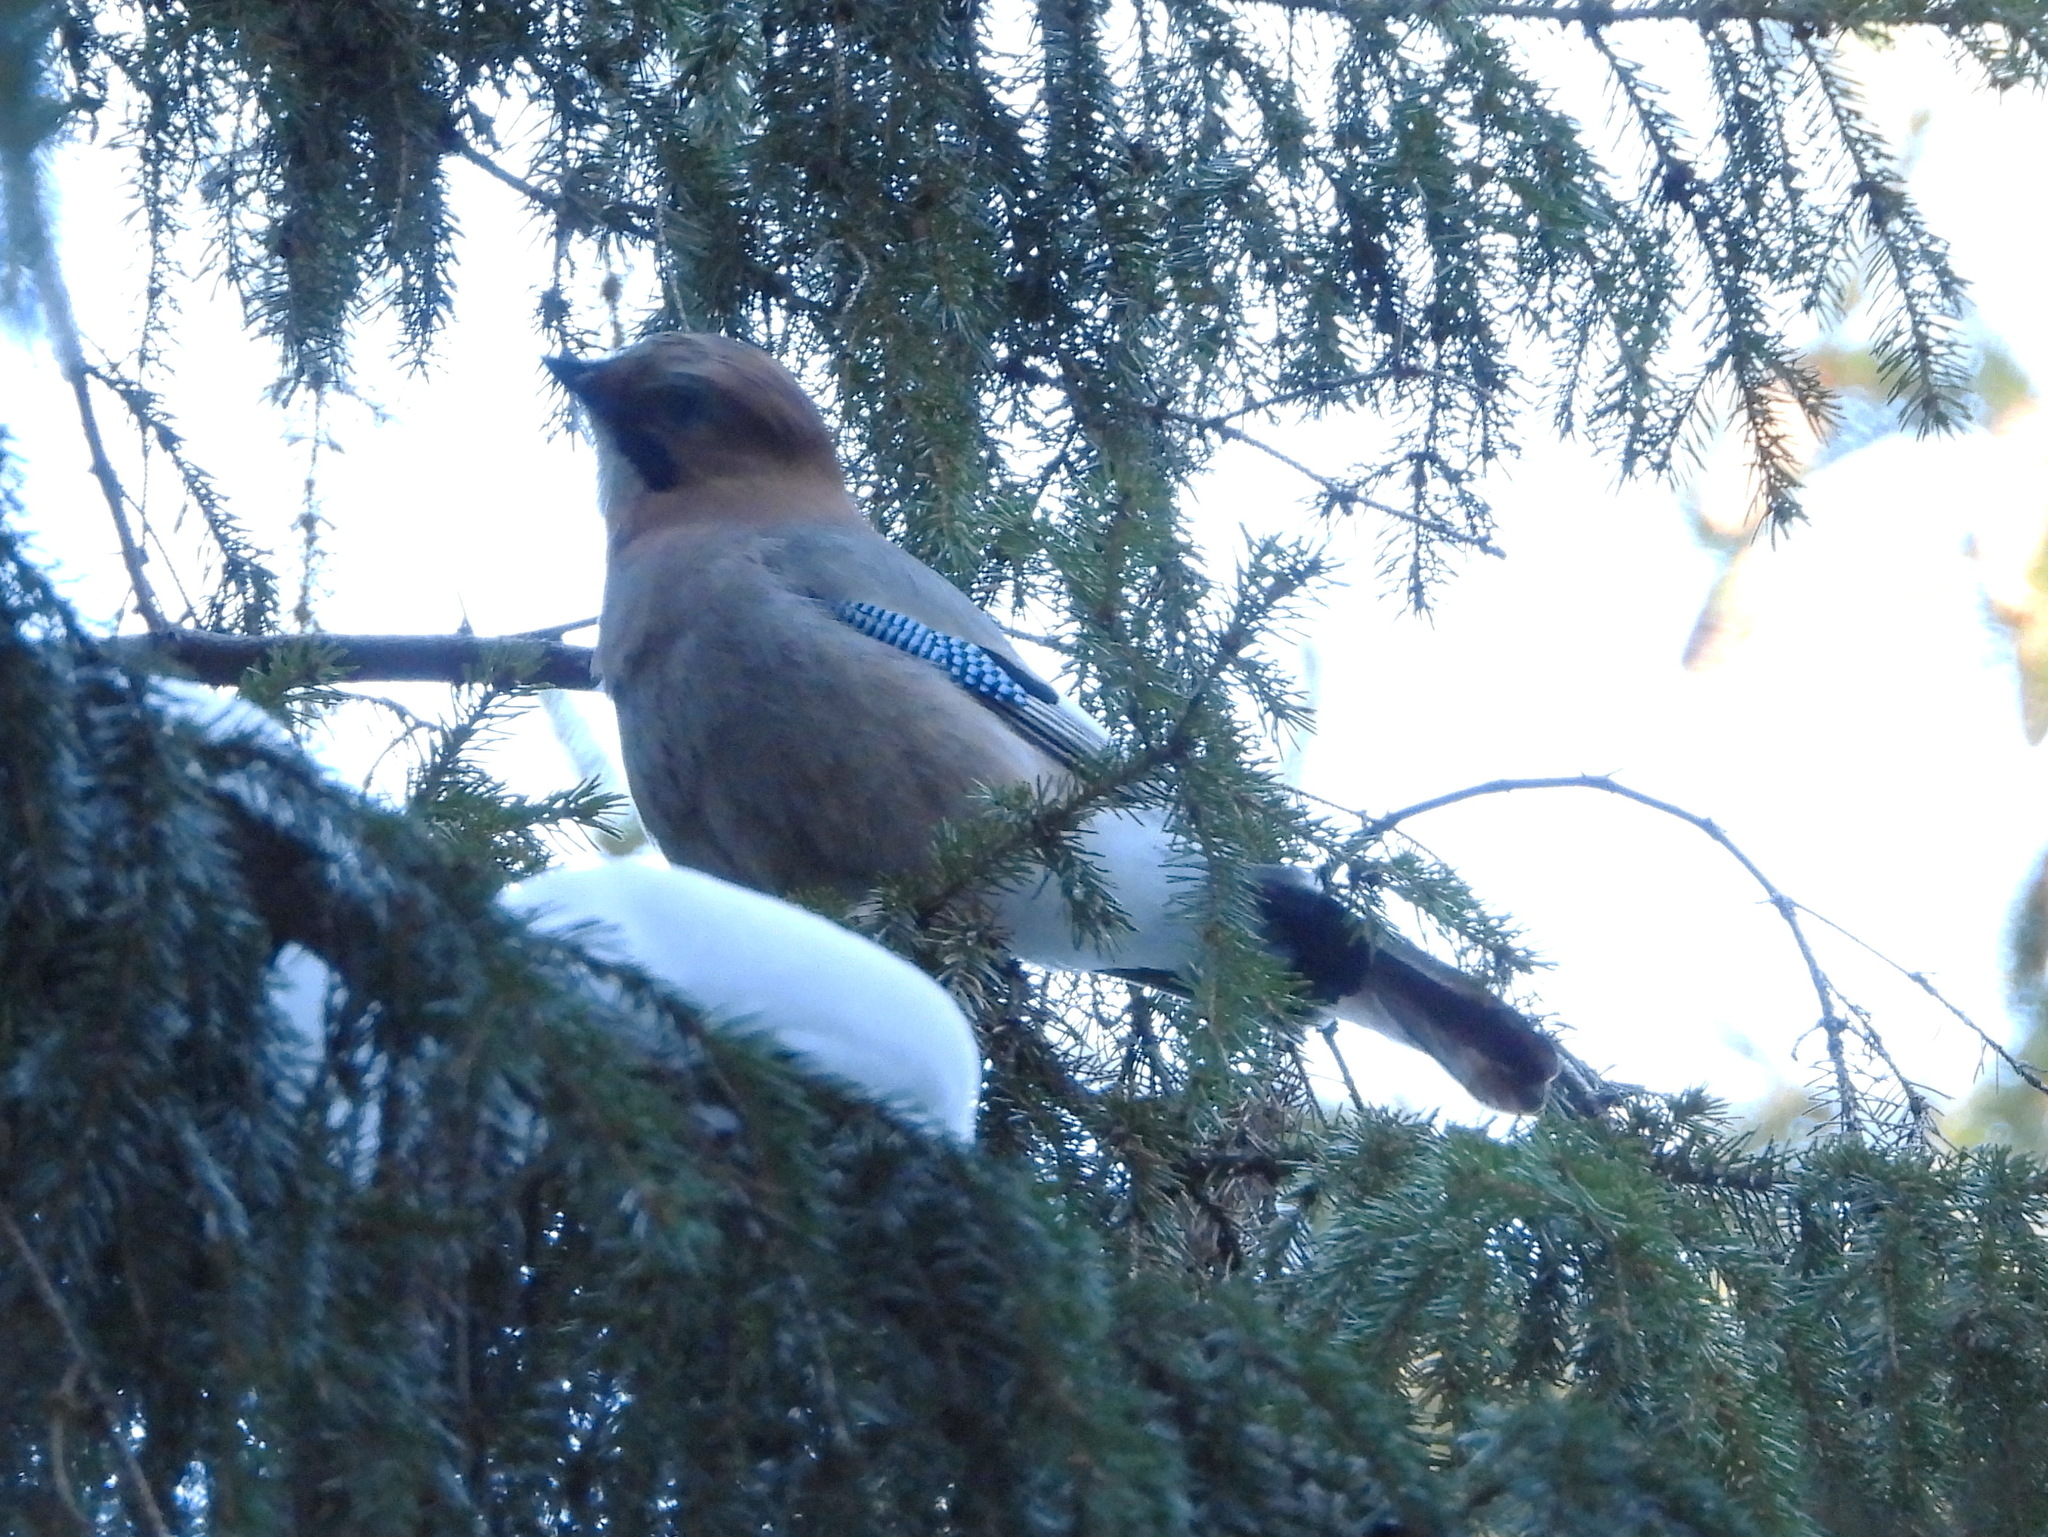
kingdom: Animalia
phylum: Chordata
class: Aves
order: Passeriformes
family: Corvidae
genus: Garrulus
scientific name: Garrulus glandarius
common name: Eurasian jay
